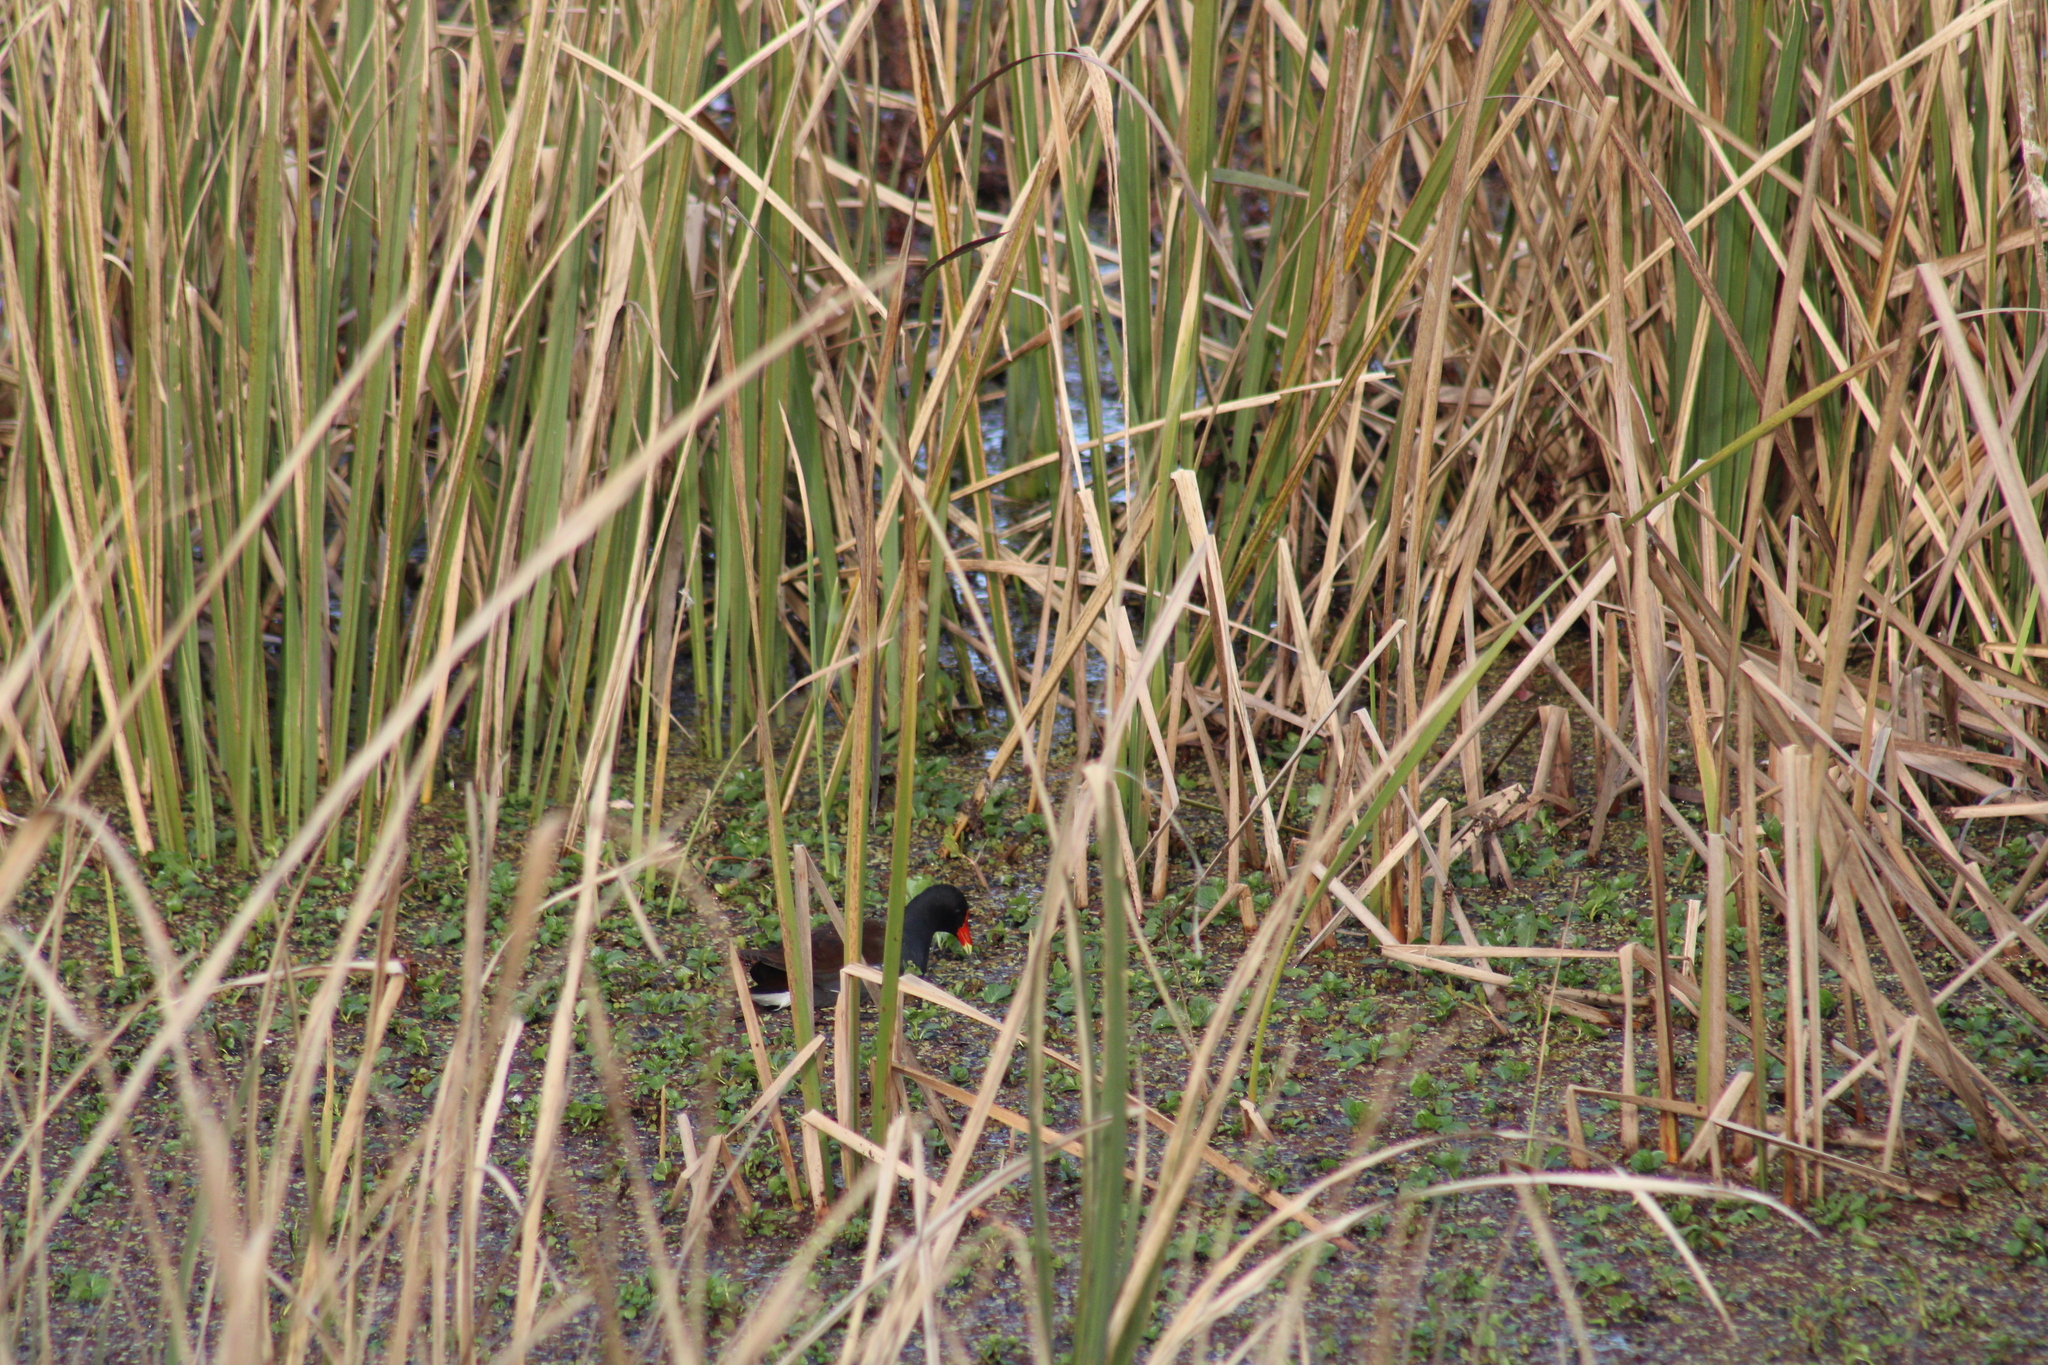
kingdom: Animalia
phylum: Chordata
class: Aves
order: Gruiformes
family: Rallidae
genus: Gallinula
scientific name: Gallinula chloropus
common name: Common moorhen
